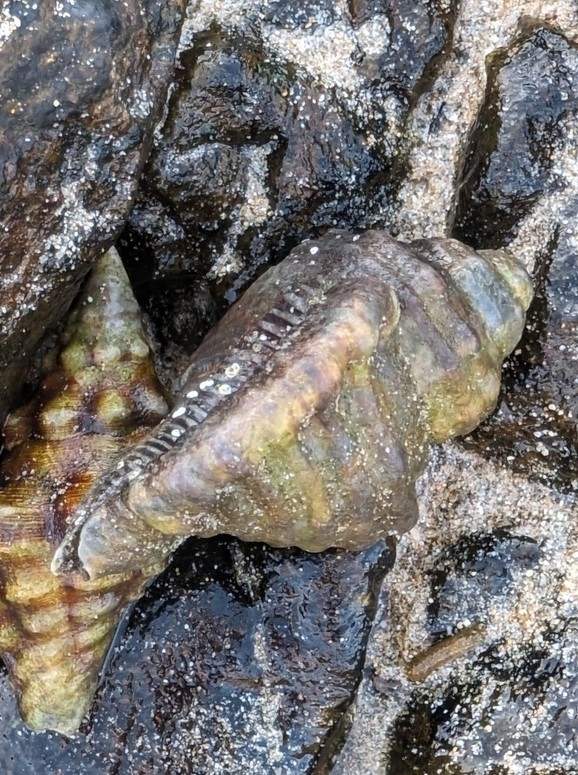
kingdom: Animalia
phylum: Mollusca
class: Gastropoda
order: Littorinimorpha
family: Cymatiidae
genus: Monoplex
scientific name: Monoplex vestitus
